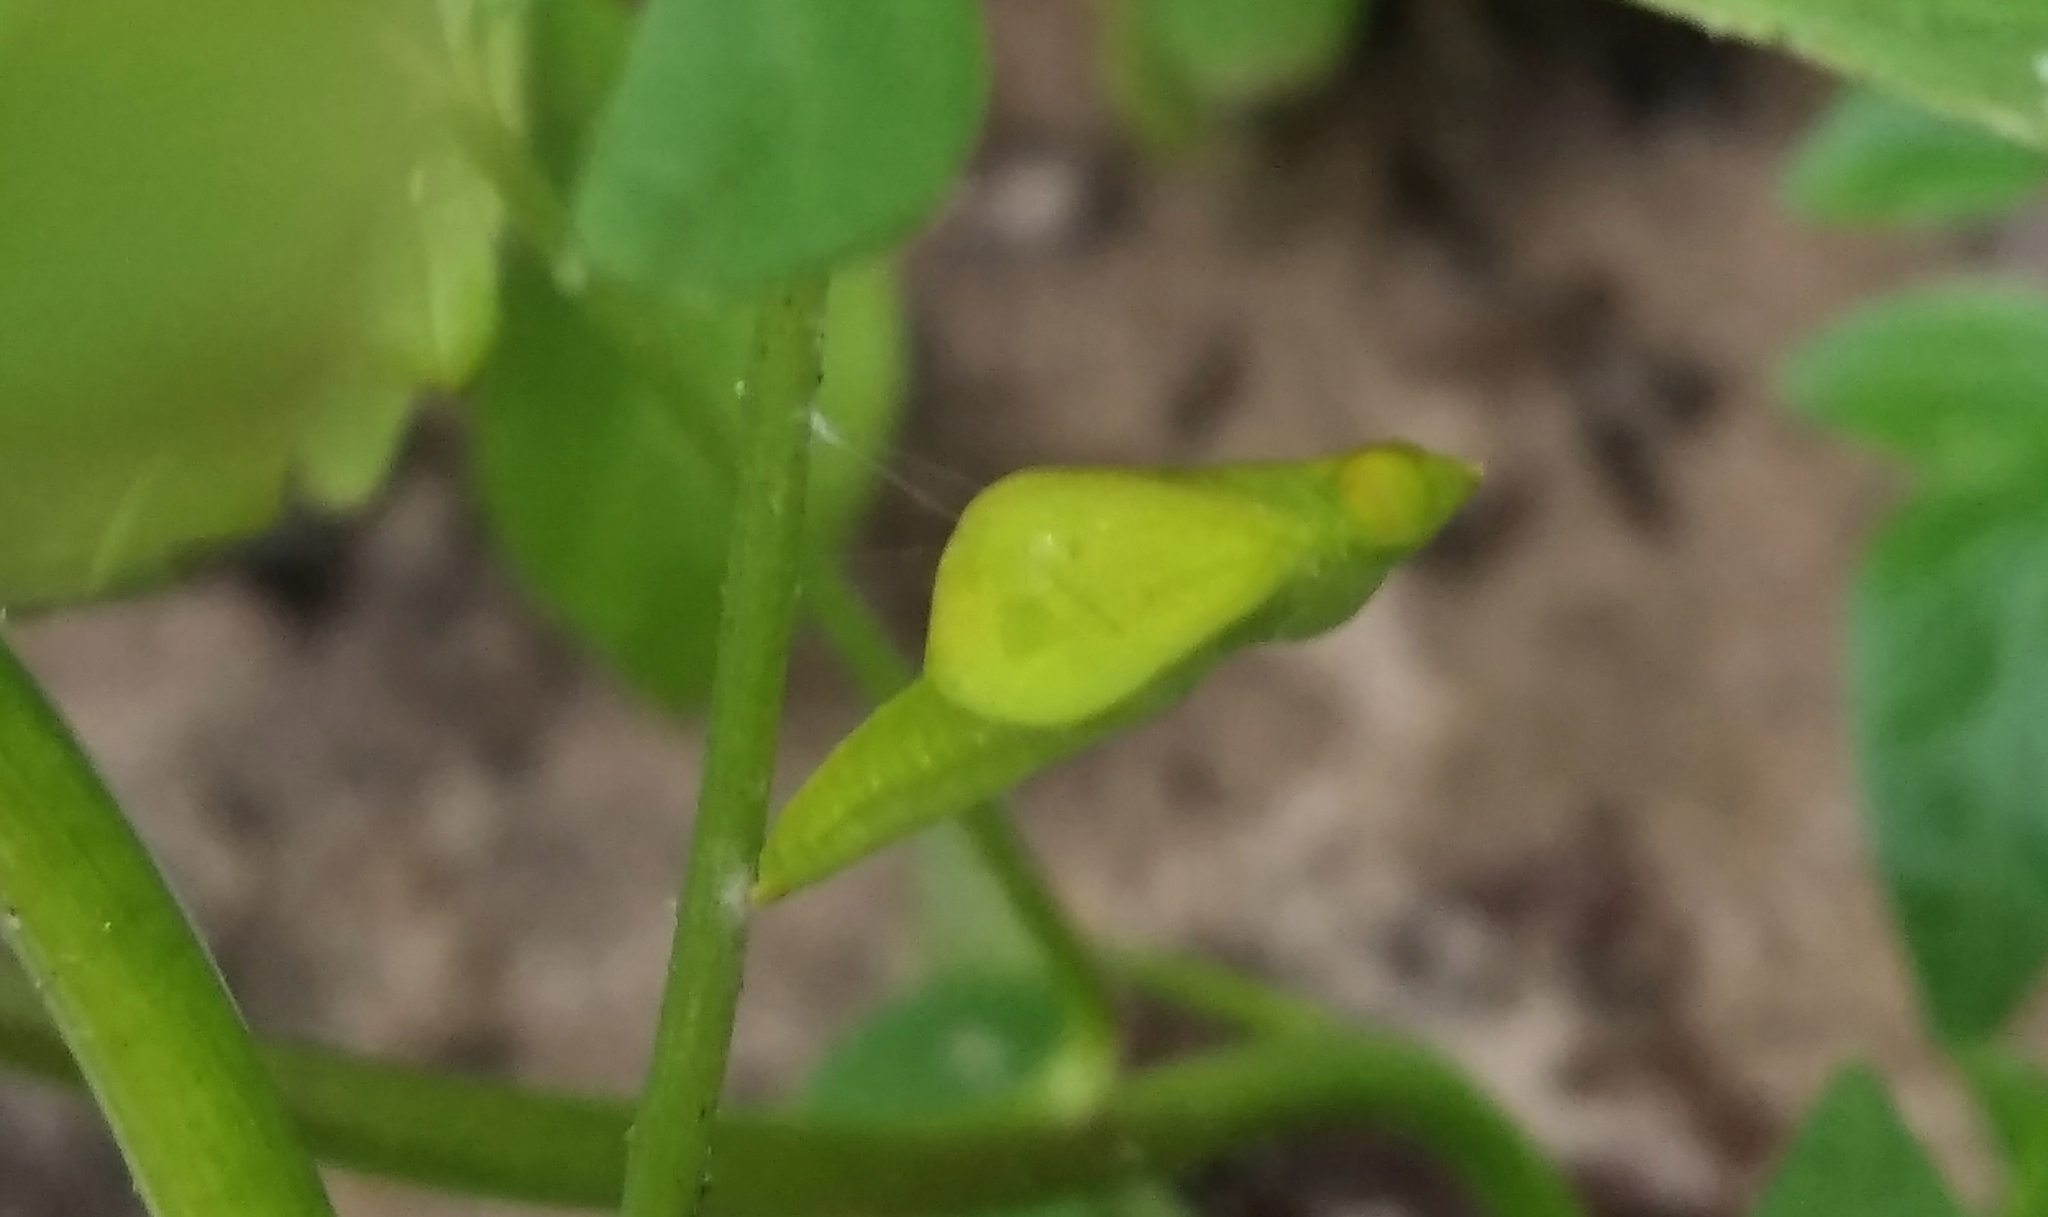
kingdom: Animalia
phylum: Arthropoda
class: Insecta
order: Lepidoptera
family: Pieridae
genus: Leptosia
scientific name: Leptosia nina
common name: Psyche
